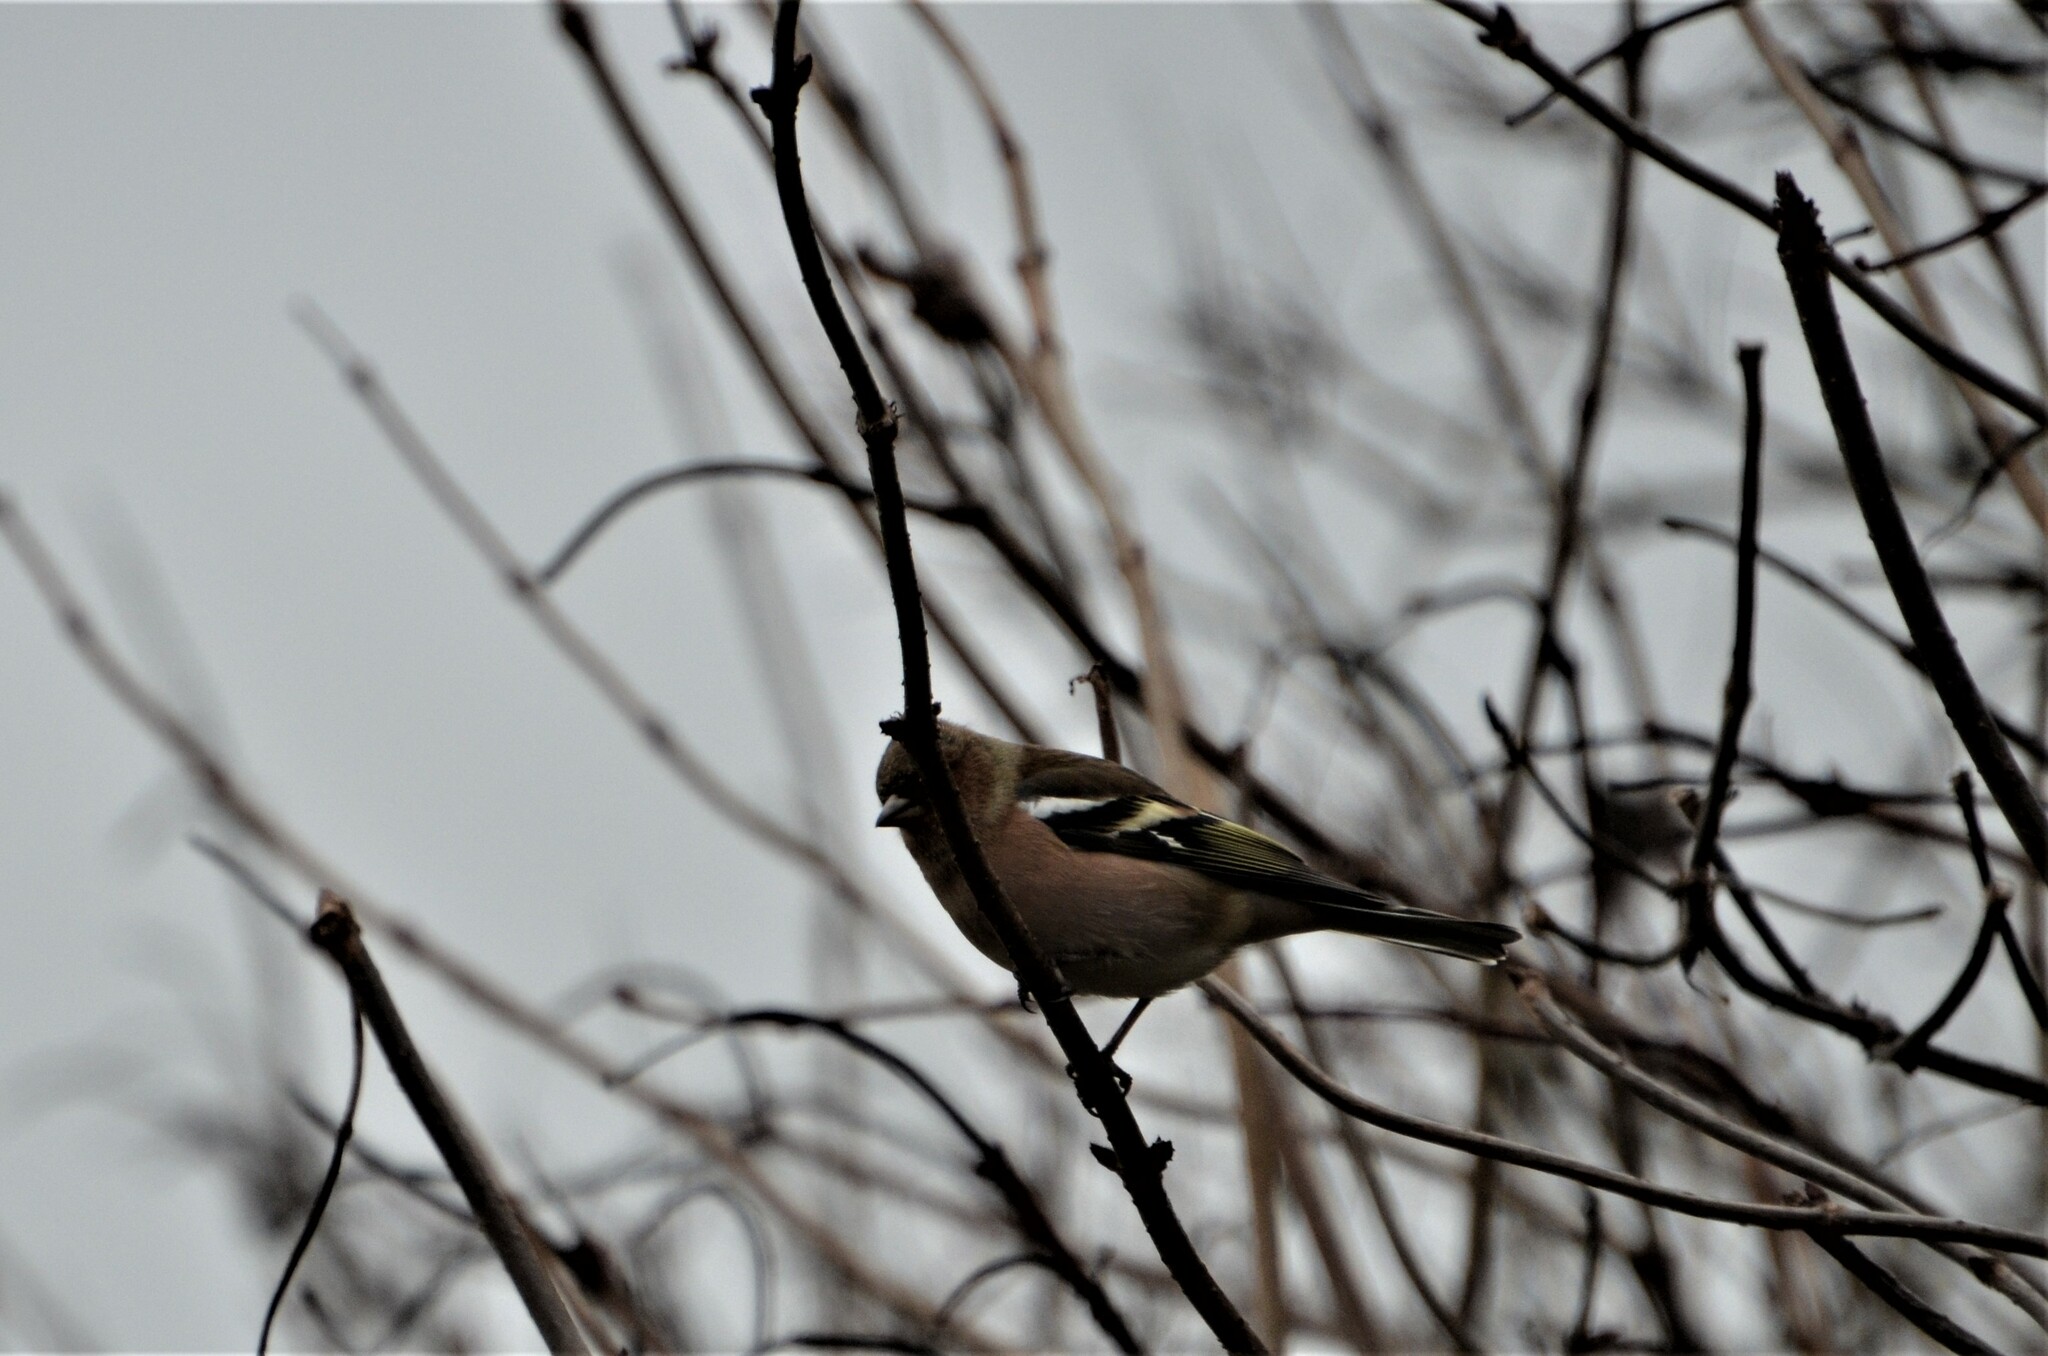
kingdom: Animalia
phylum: Chordata
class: Aves
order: Passeriformes
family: Fringillidae
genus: Fringilla
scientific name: Fringilla coelebs
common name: Common chaffinch
